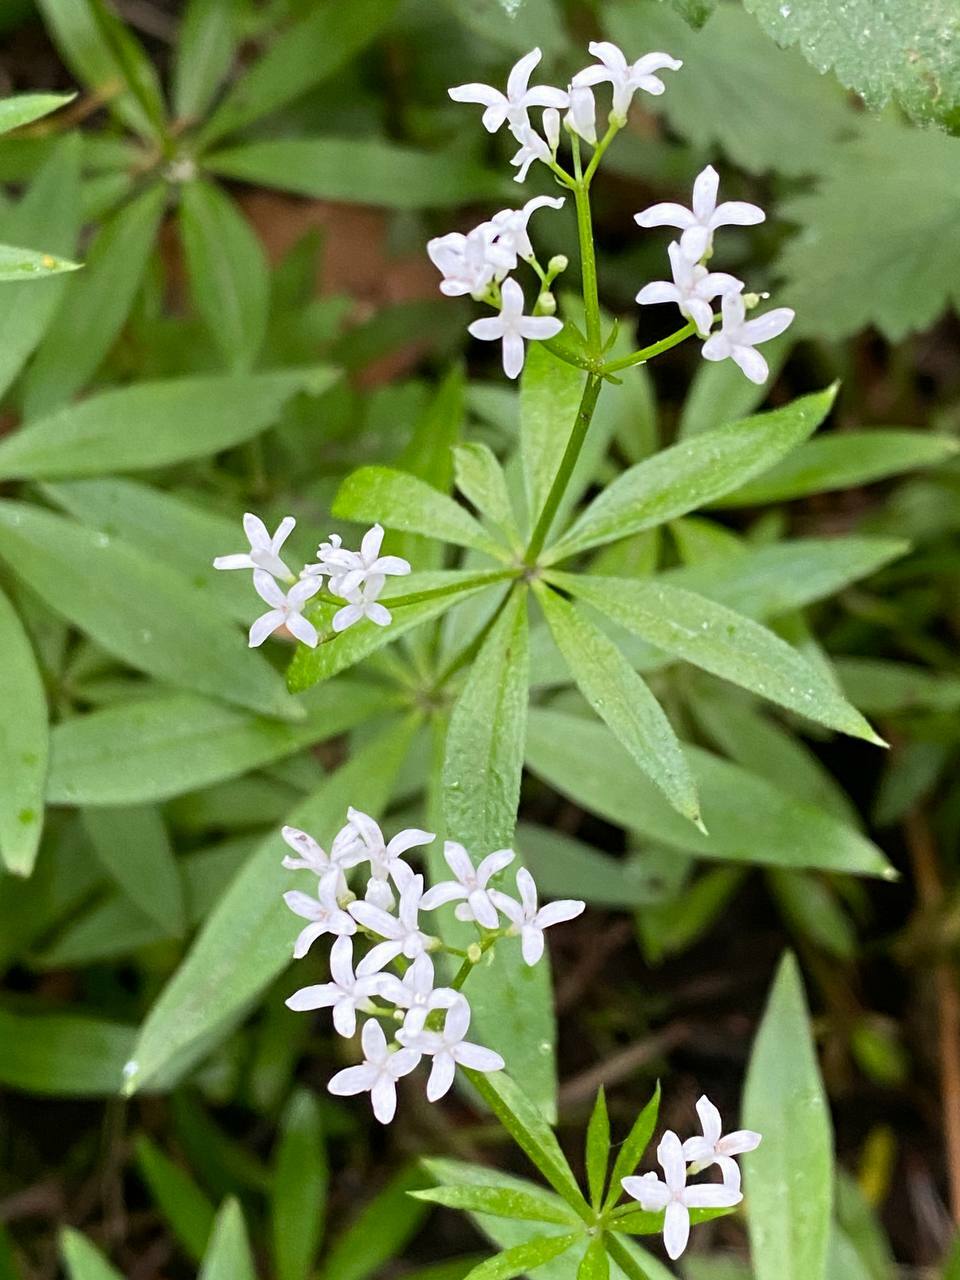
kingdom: Plantae
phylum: Tracheophyta
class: Magnoliopsida
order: Gentianales
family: Rubiaceae
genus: Galium
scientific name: Galium odoratum
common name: Sweet woodruff
